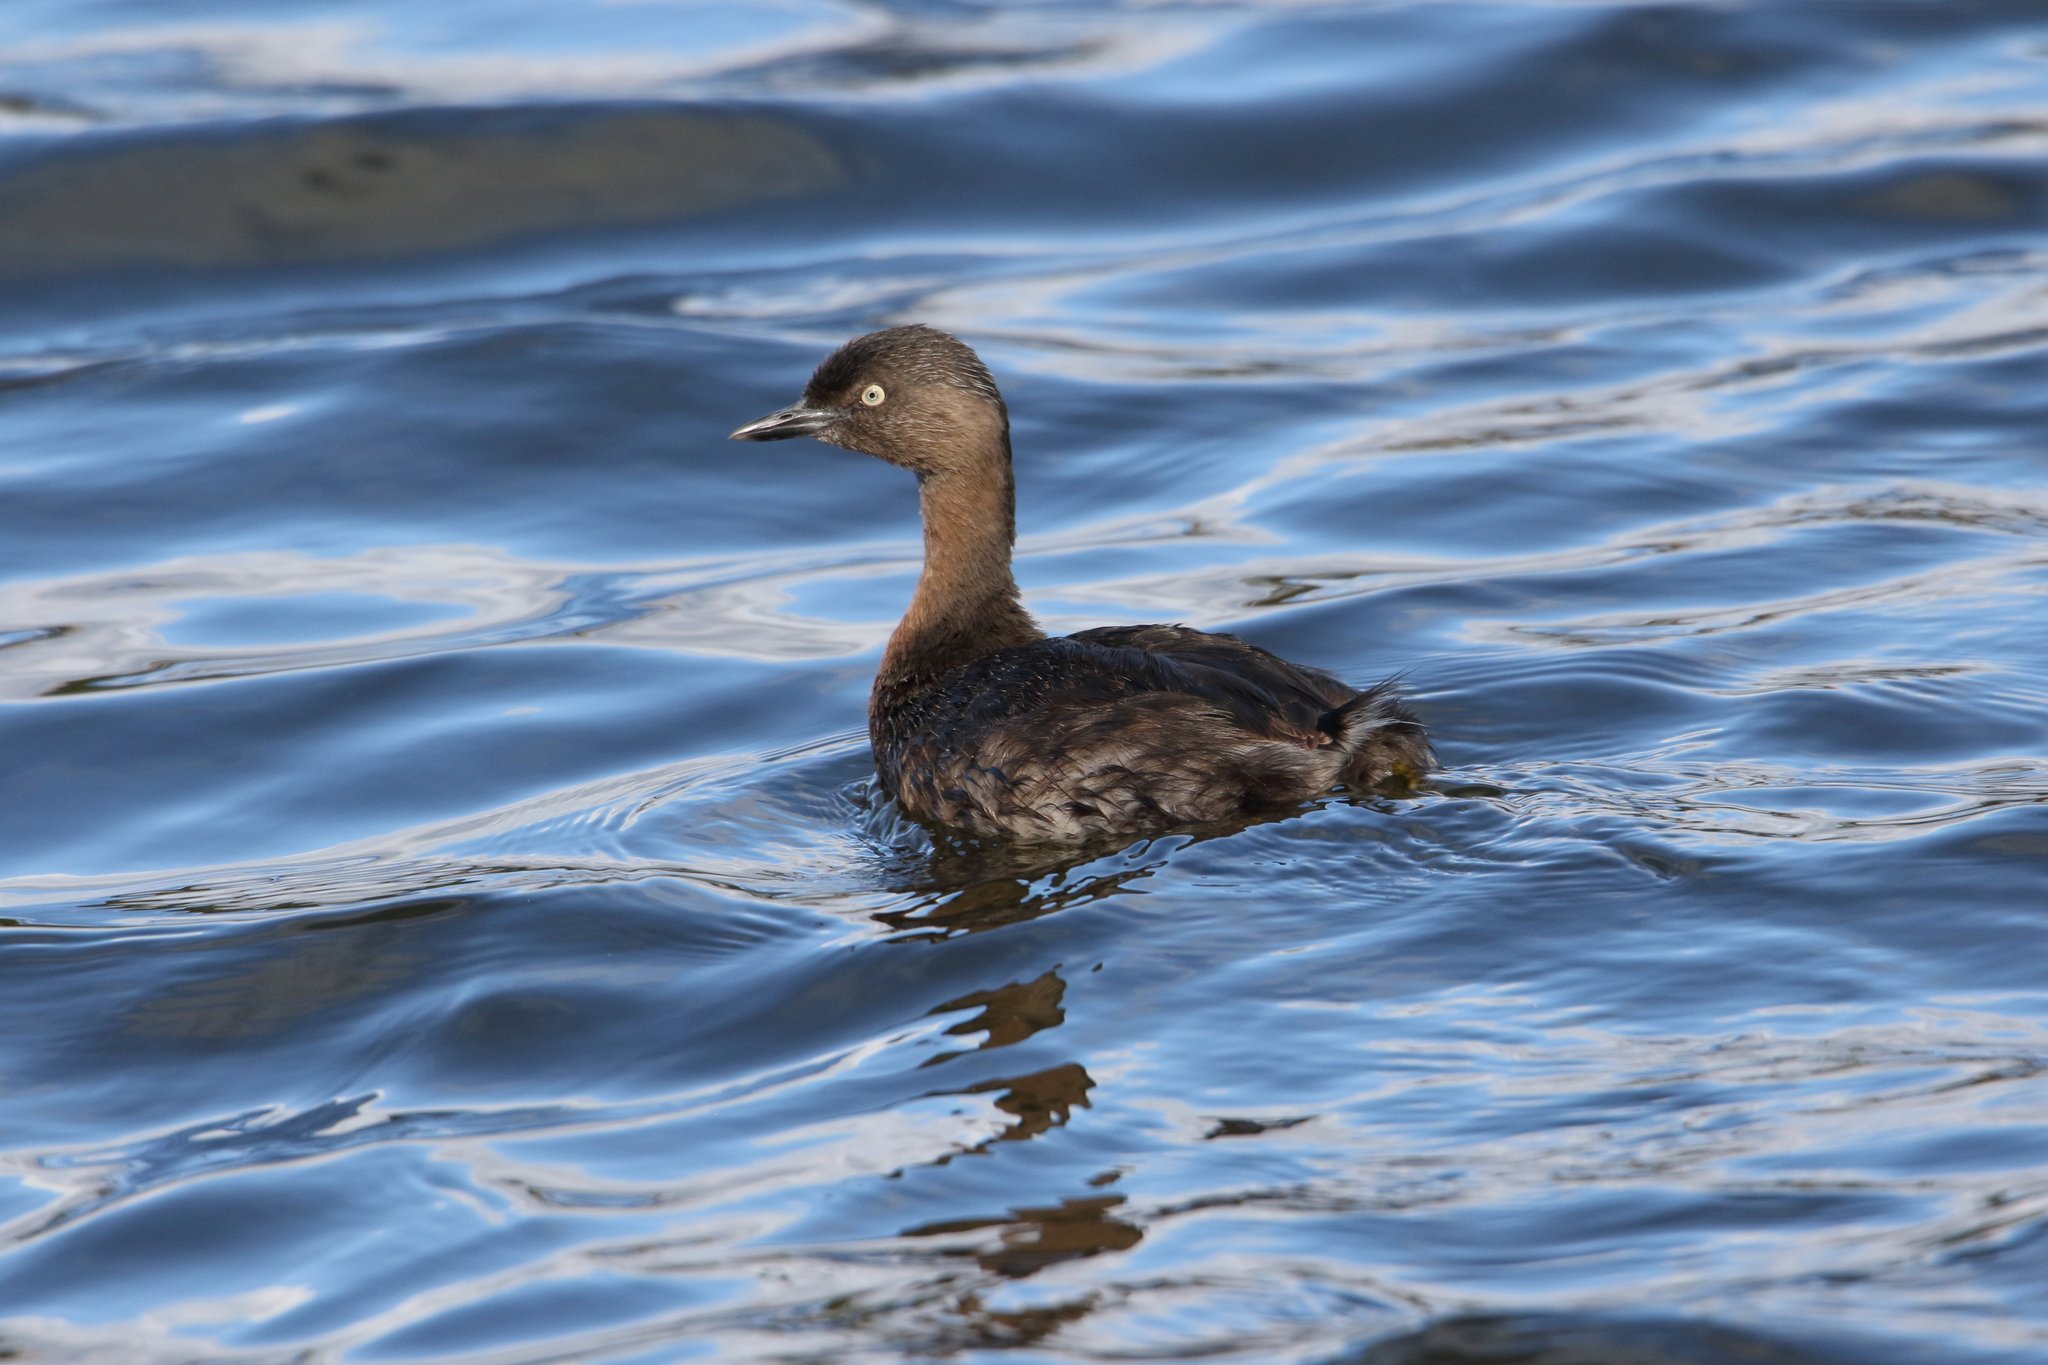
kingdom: Animalia
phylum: Chordata
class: Aves
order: Podicipediformes
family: Podicipedidae
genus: Poliocephalus
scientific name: Poliocephalus rufopectus
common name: New zealand grebe
